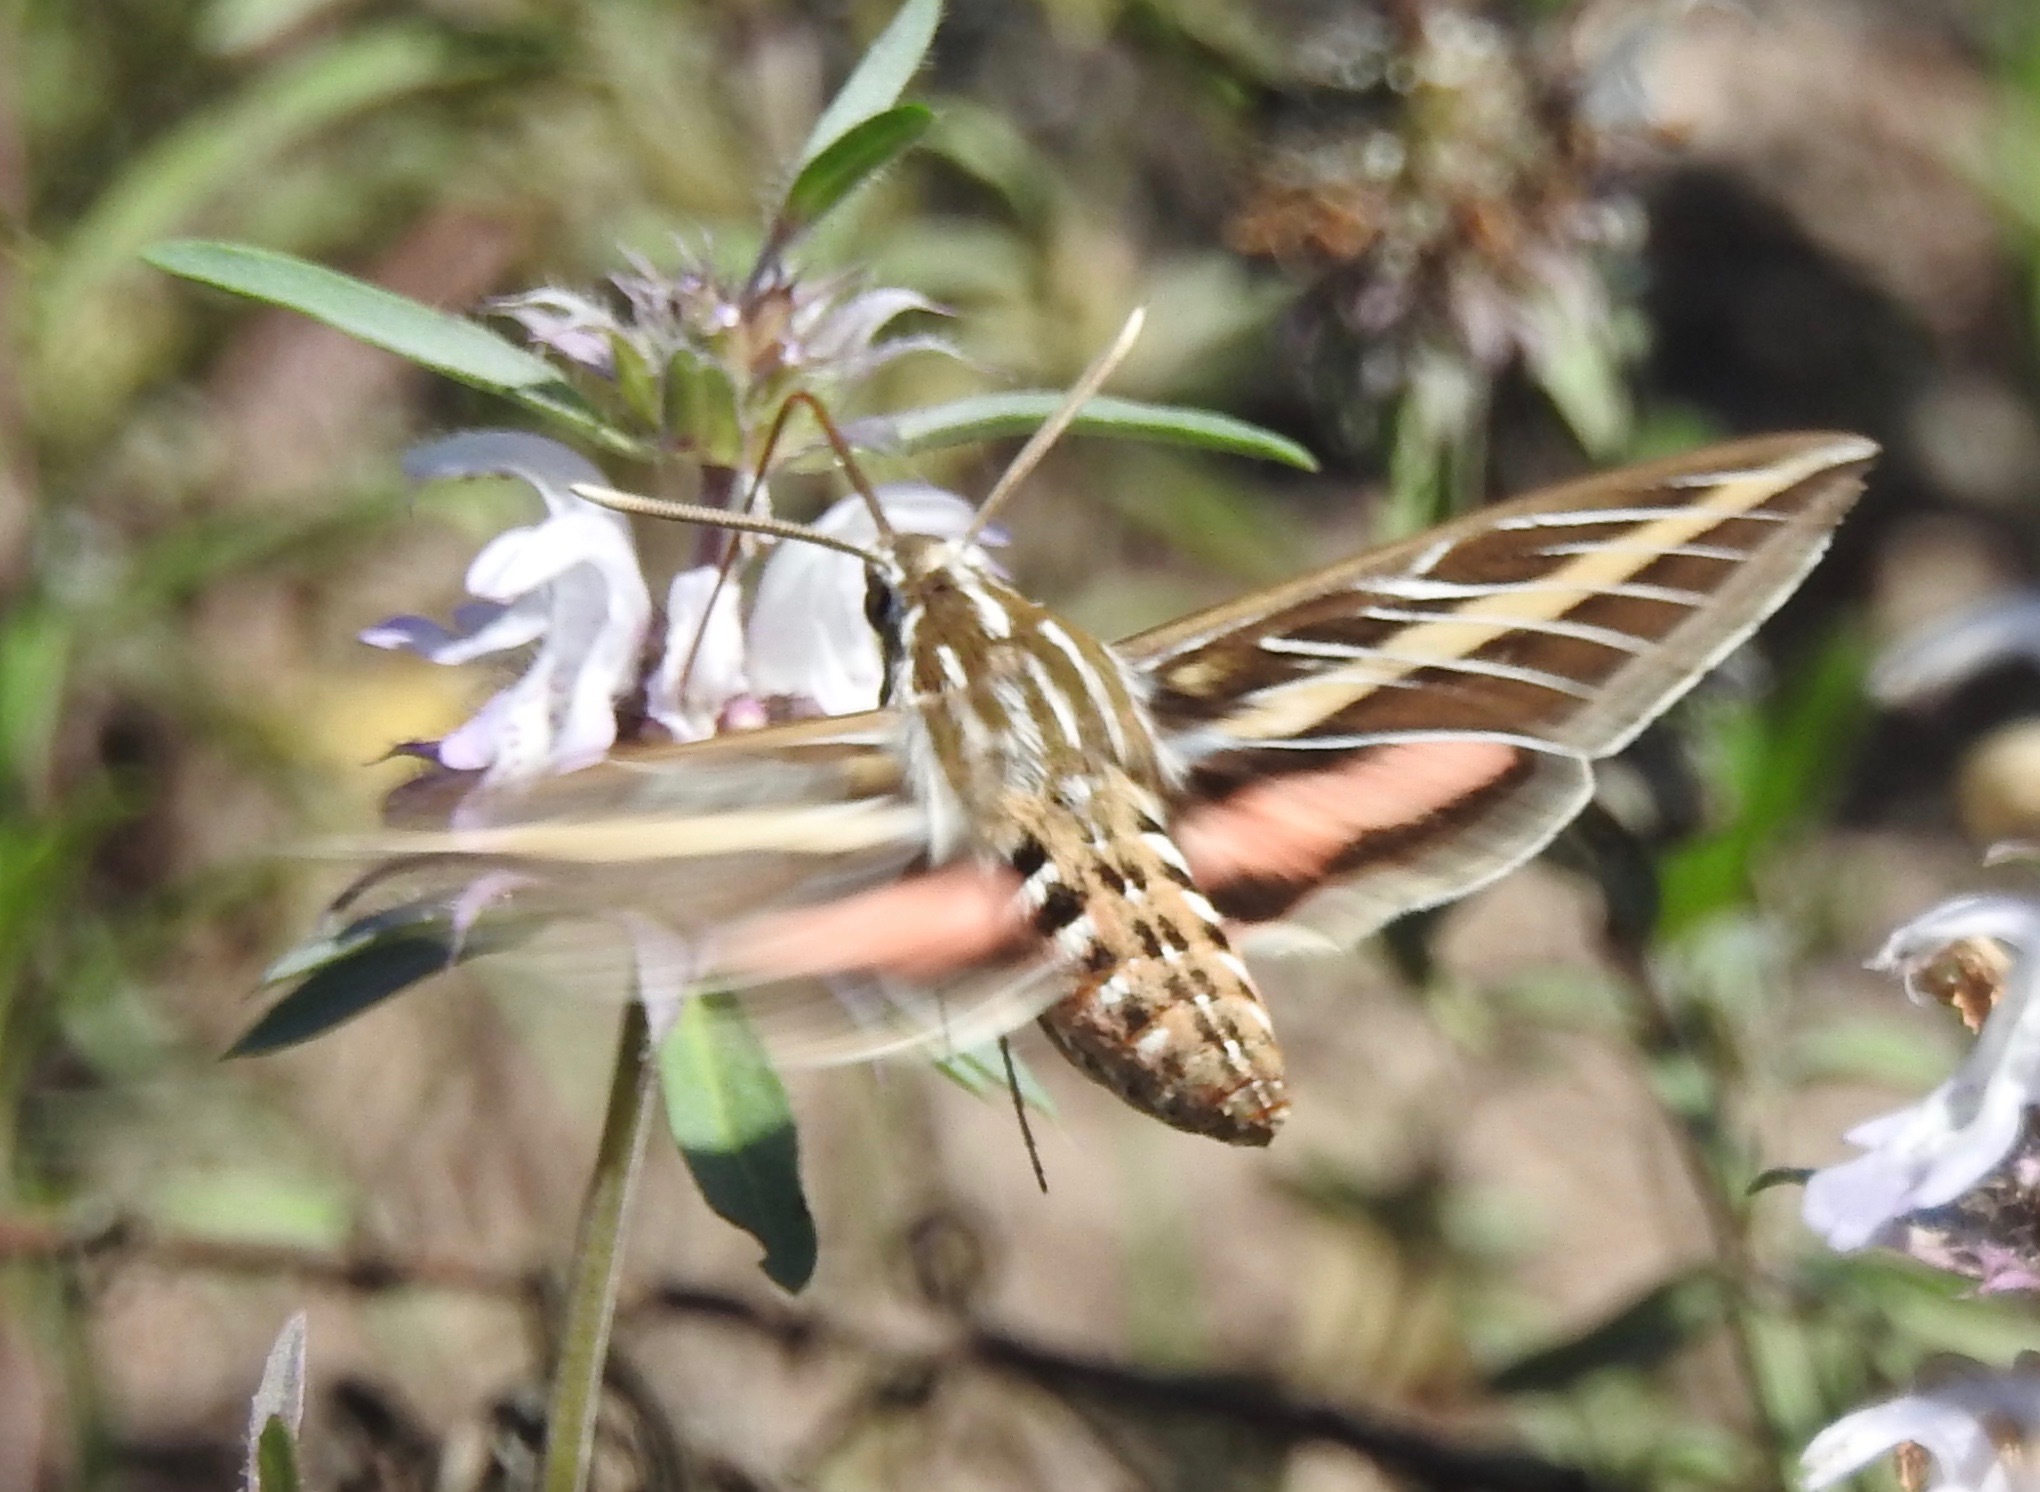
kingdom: Animalia
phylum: Arthropoda
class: Insecta
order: Lepidoptera
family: Sphingidae
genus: Hyles
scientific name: Hyles lineata
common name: White-lined sphinx
